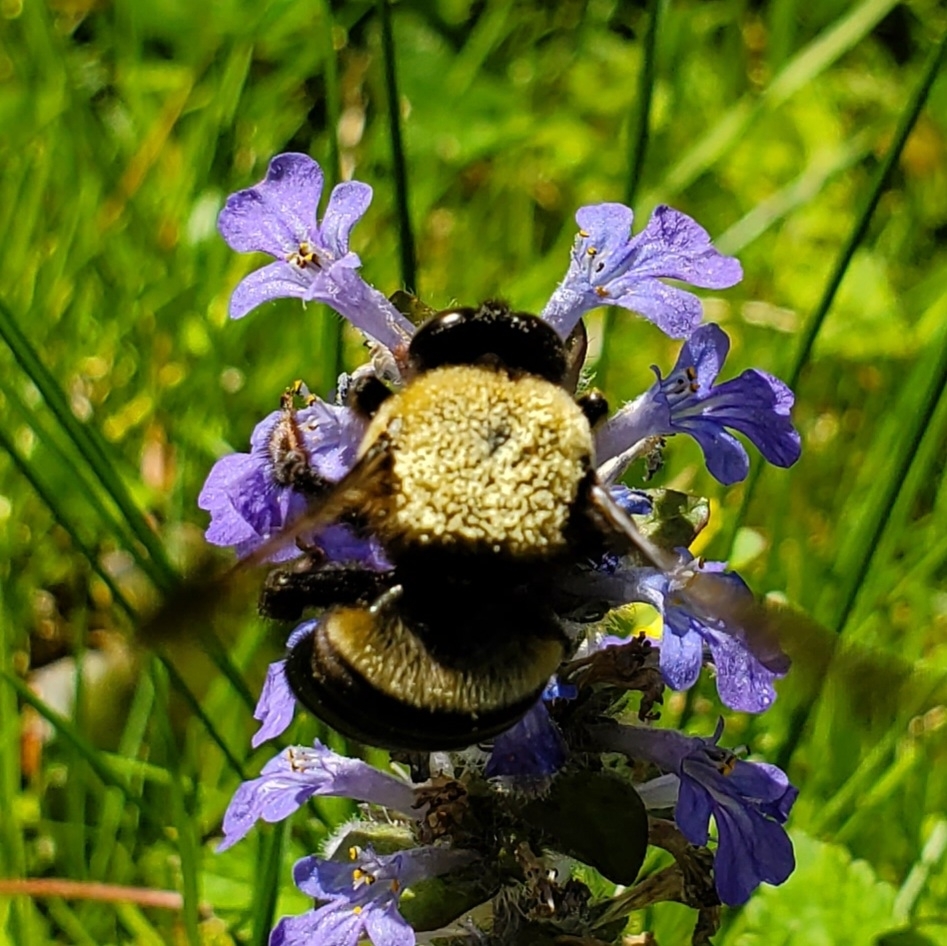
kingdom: Animalia
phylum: Arthropoda
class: Insecta
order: Hymenoptera
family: Apidae
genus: Xylocopa
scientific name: Xylocopa virginica
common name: Carpenter bee
